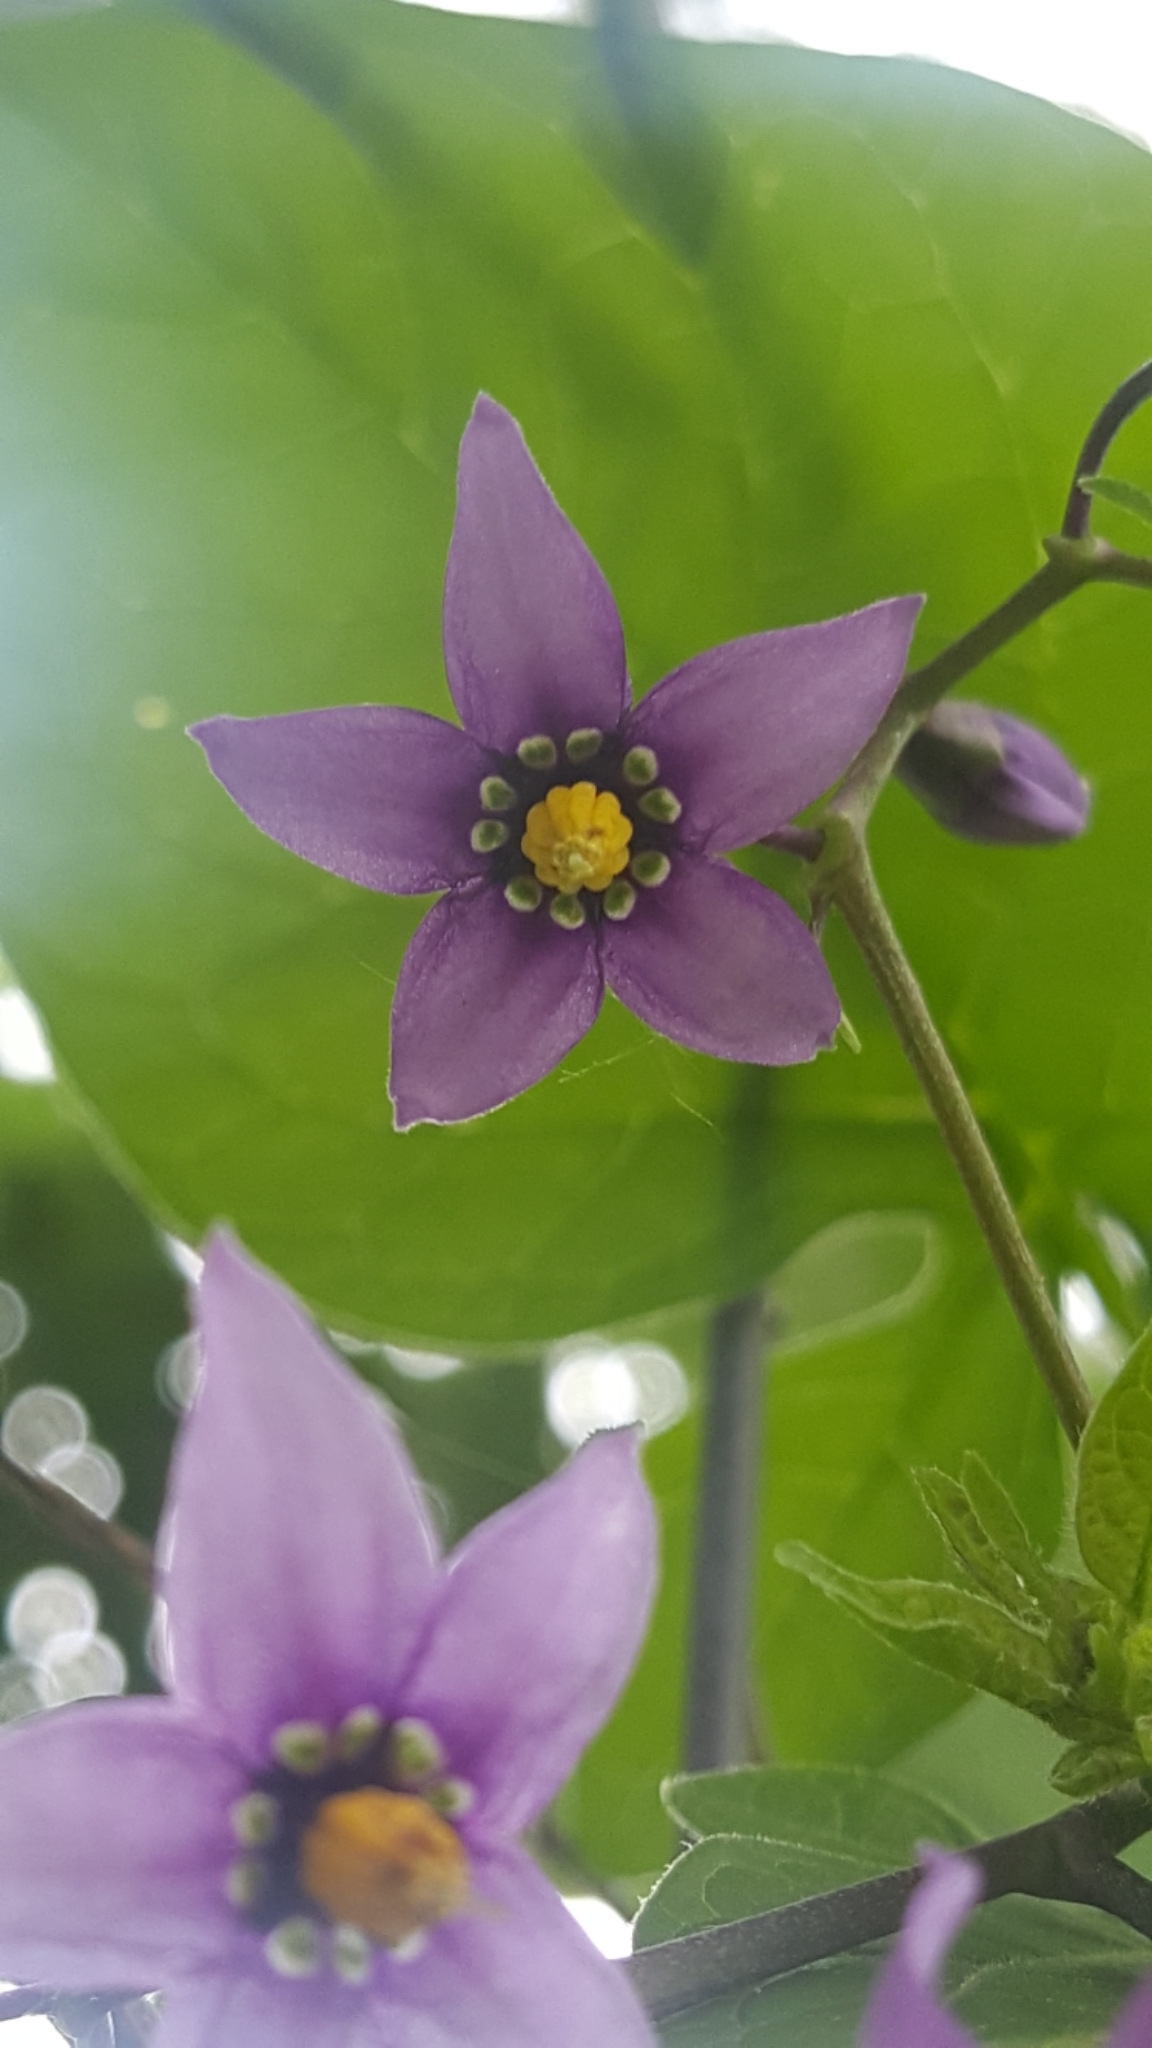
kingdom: Plantae
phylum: Tracheophyta
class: Magnoliopsida
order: Solanales
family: Solanaceae
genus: Solanum
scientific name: Solanum dulcamara
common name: Climbing nightshade
